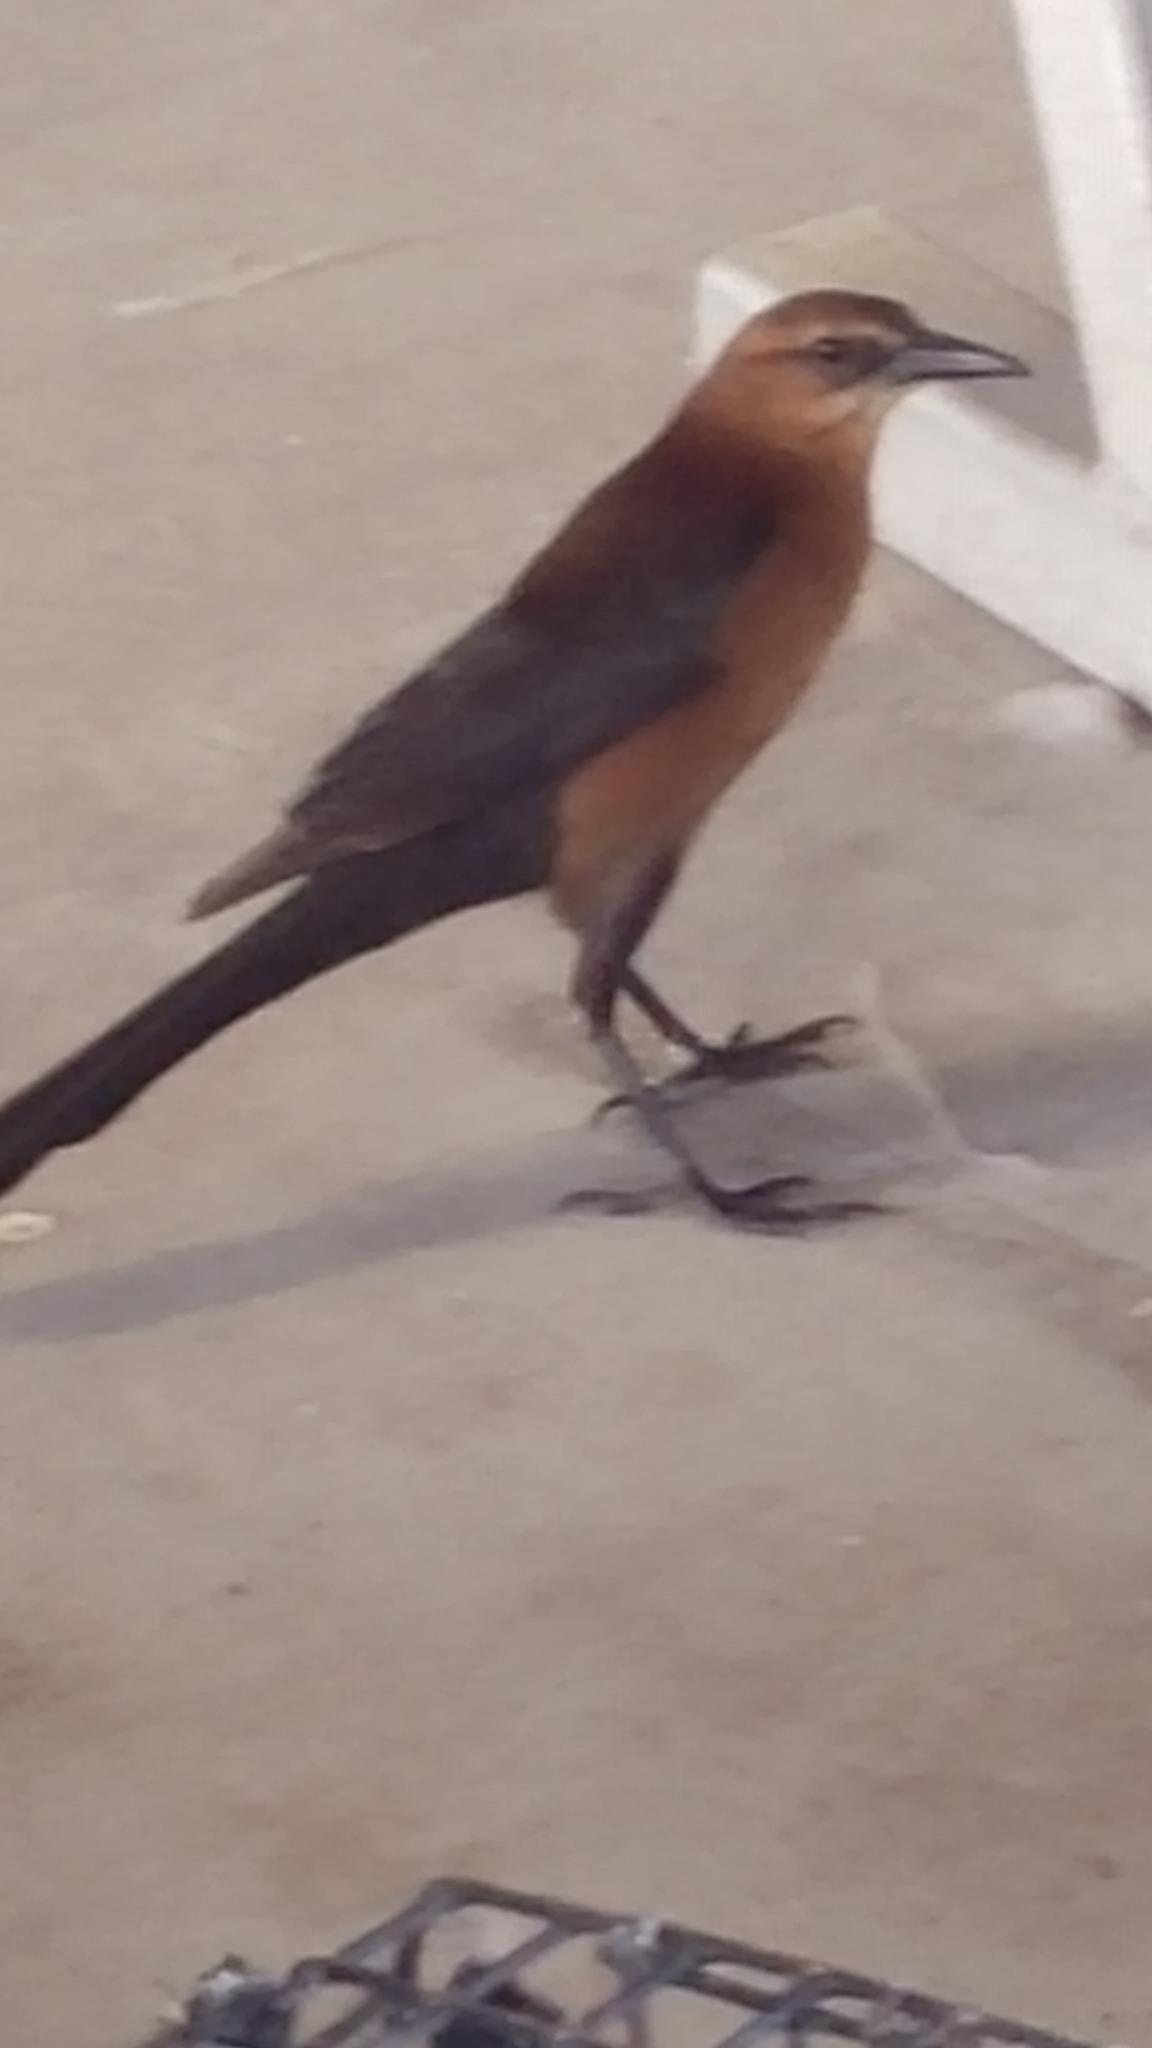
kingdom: Animalia
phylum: Chordata
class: Aves
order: Passeriformes
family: Icteridae
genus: Quiscalus
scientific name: Quiscalus major
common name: Boat-tailed grackle
